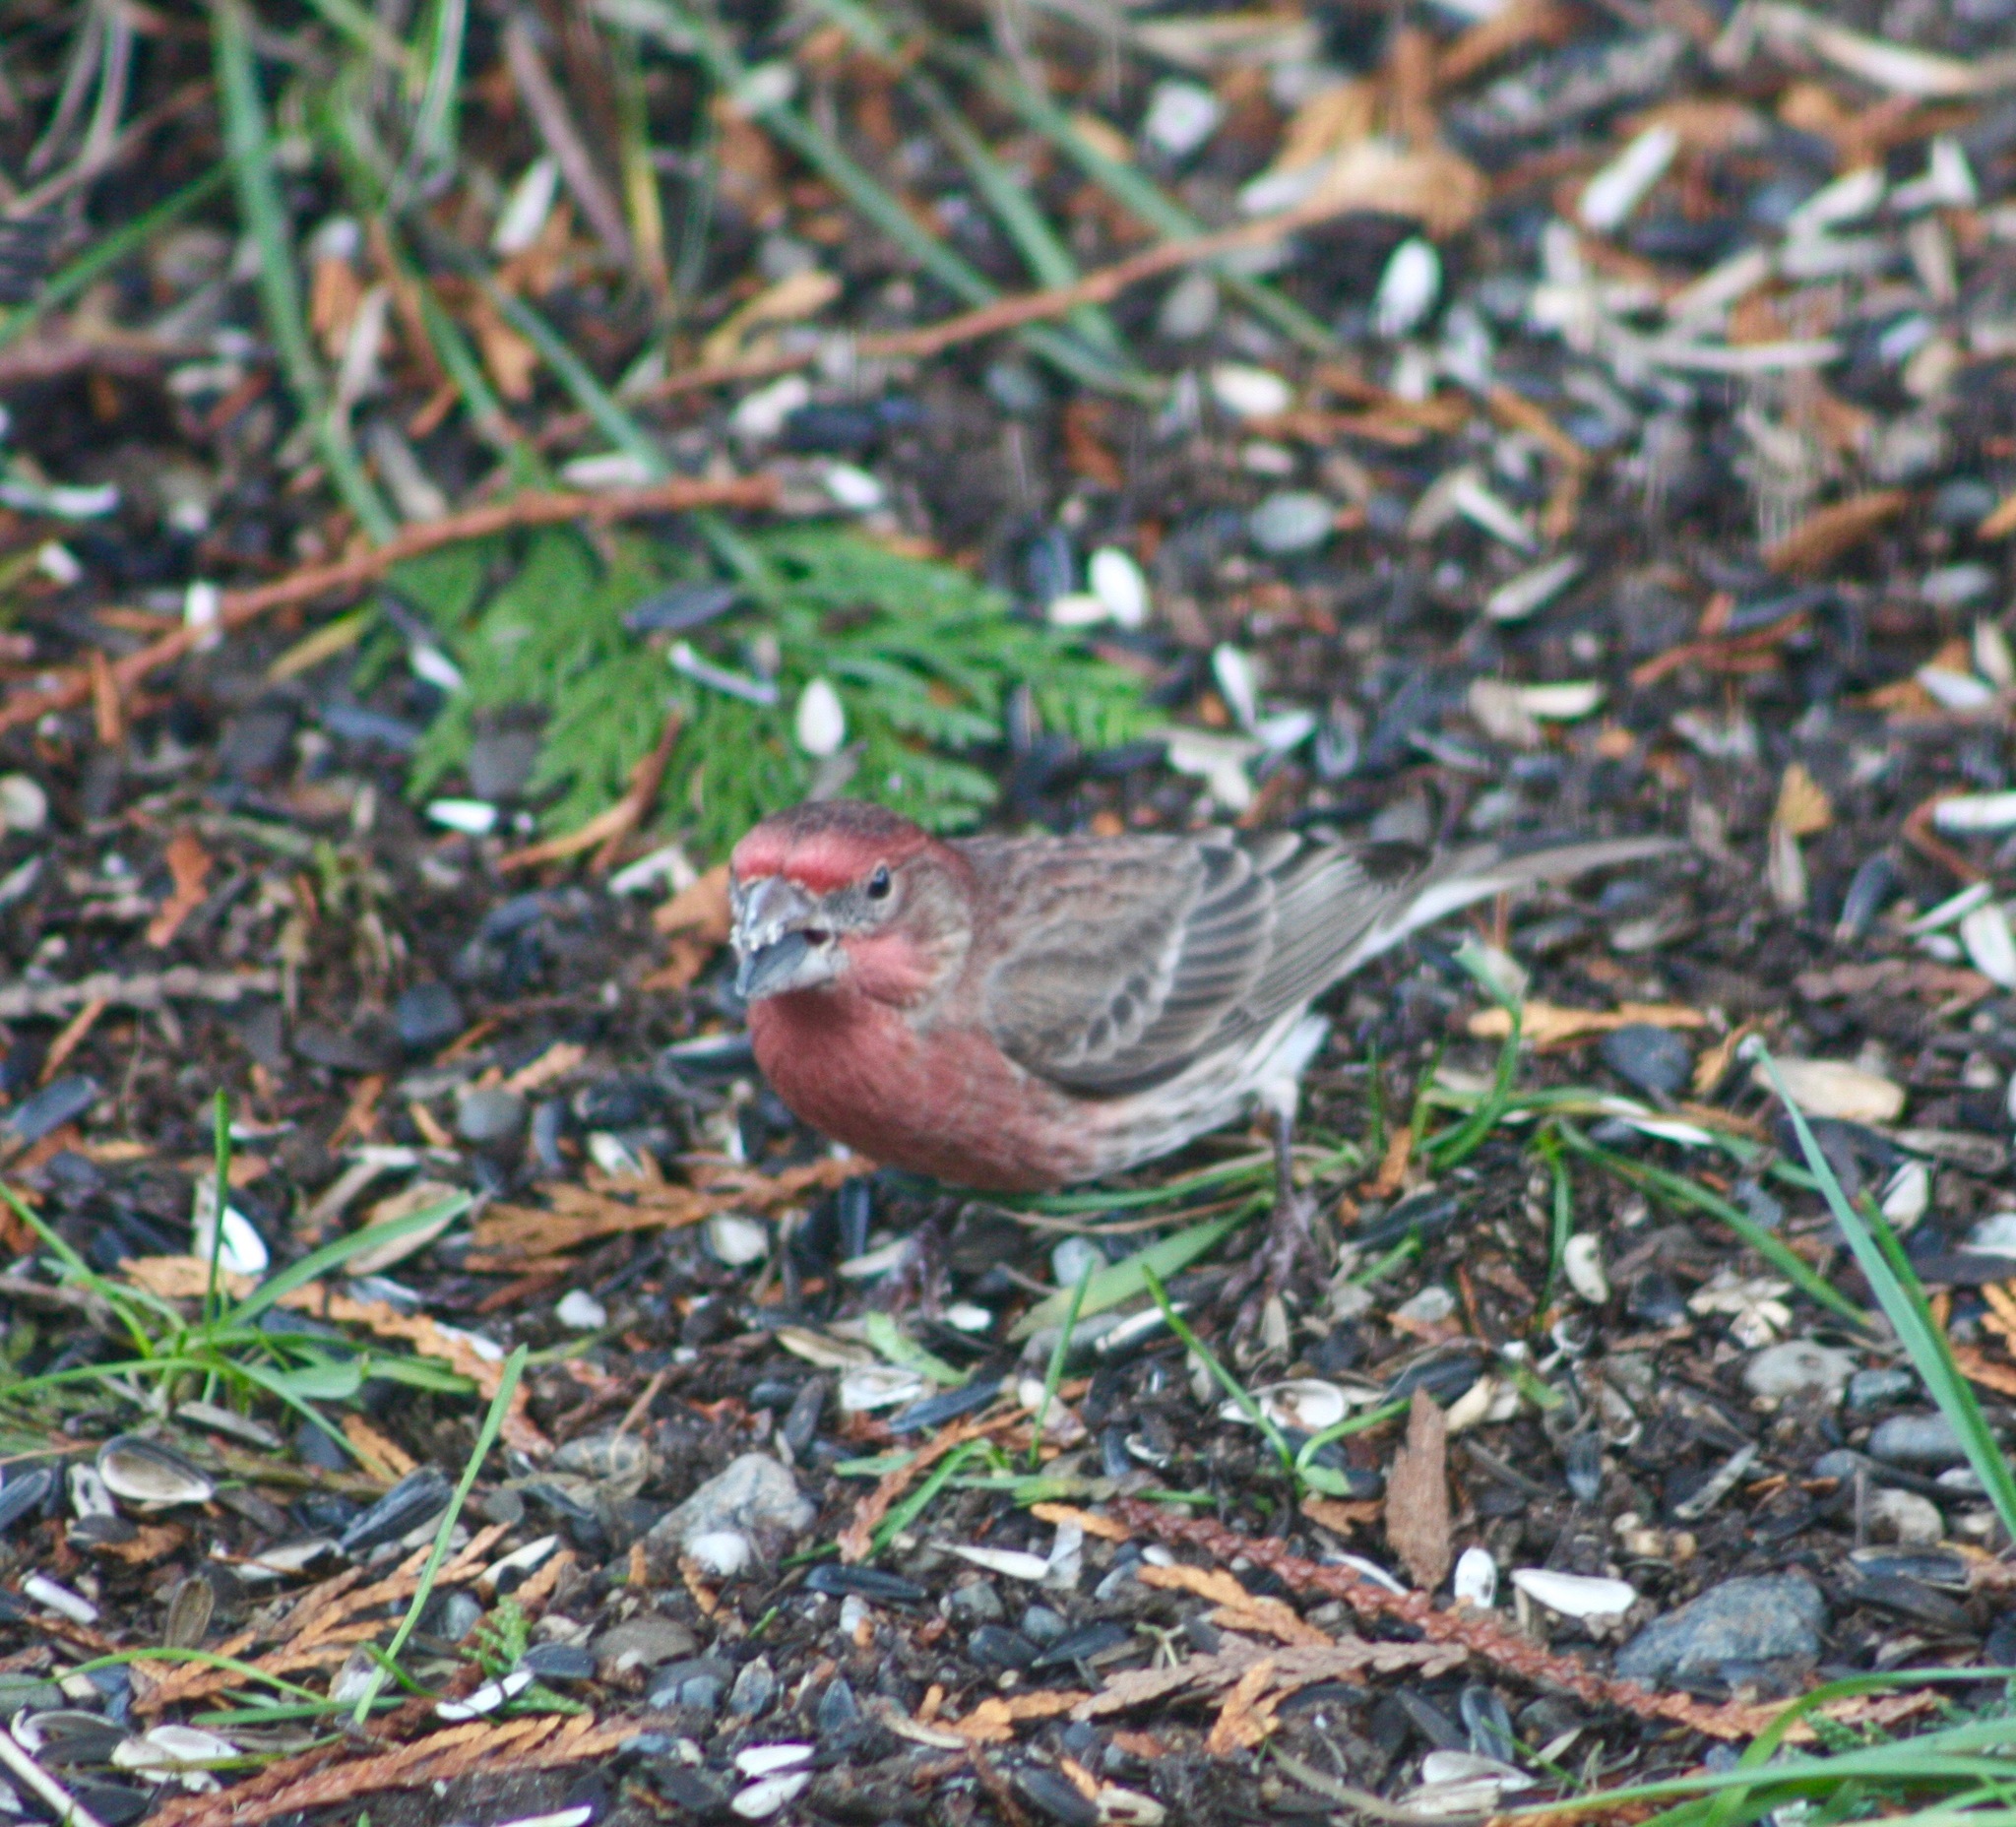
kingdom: Animalia
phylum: Chordata
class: Aves
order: Passeriformes
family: Fringillidae
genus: Haemorhous
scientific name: Haemorhous mexicanus
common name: House finch
